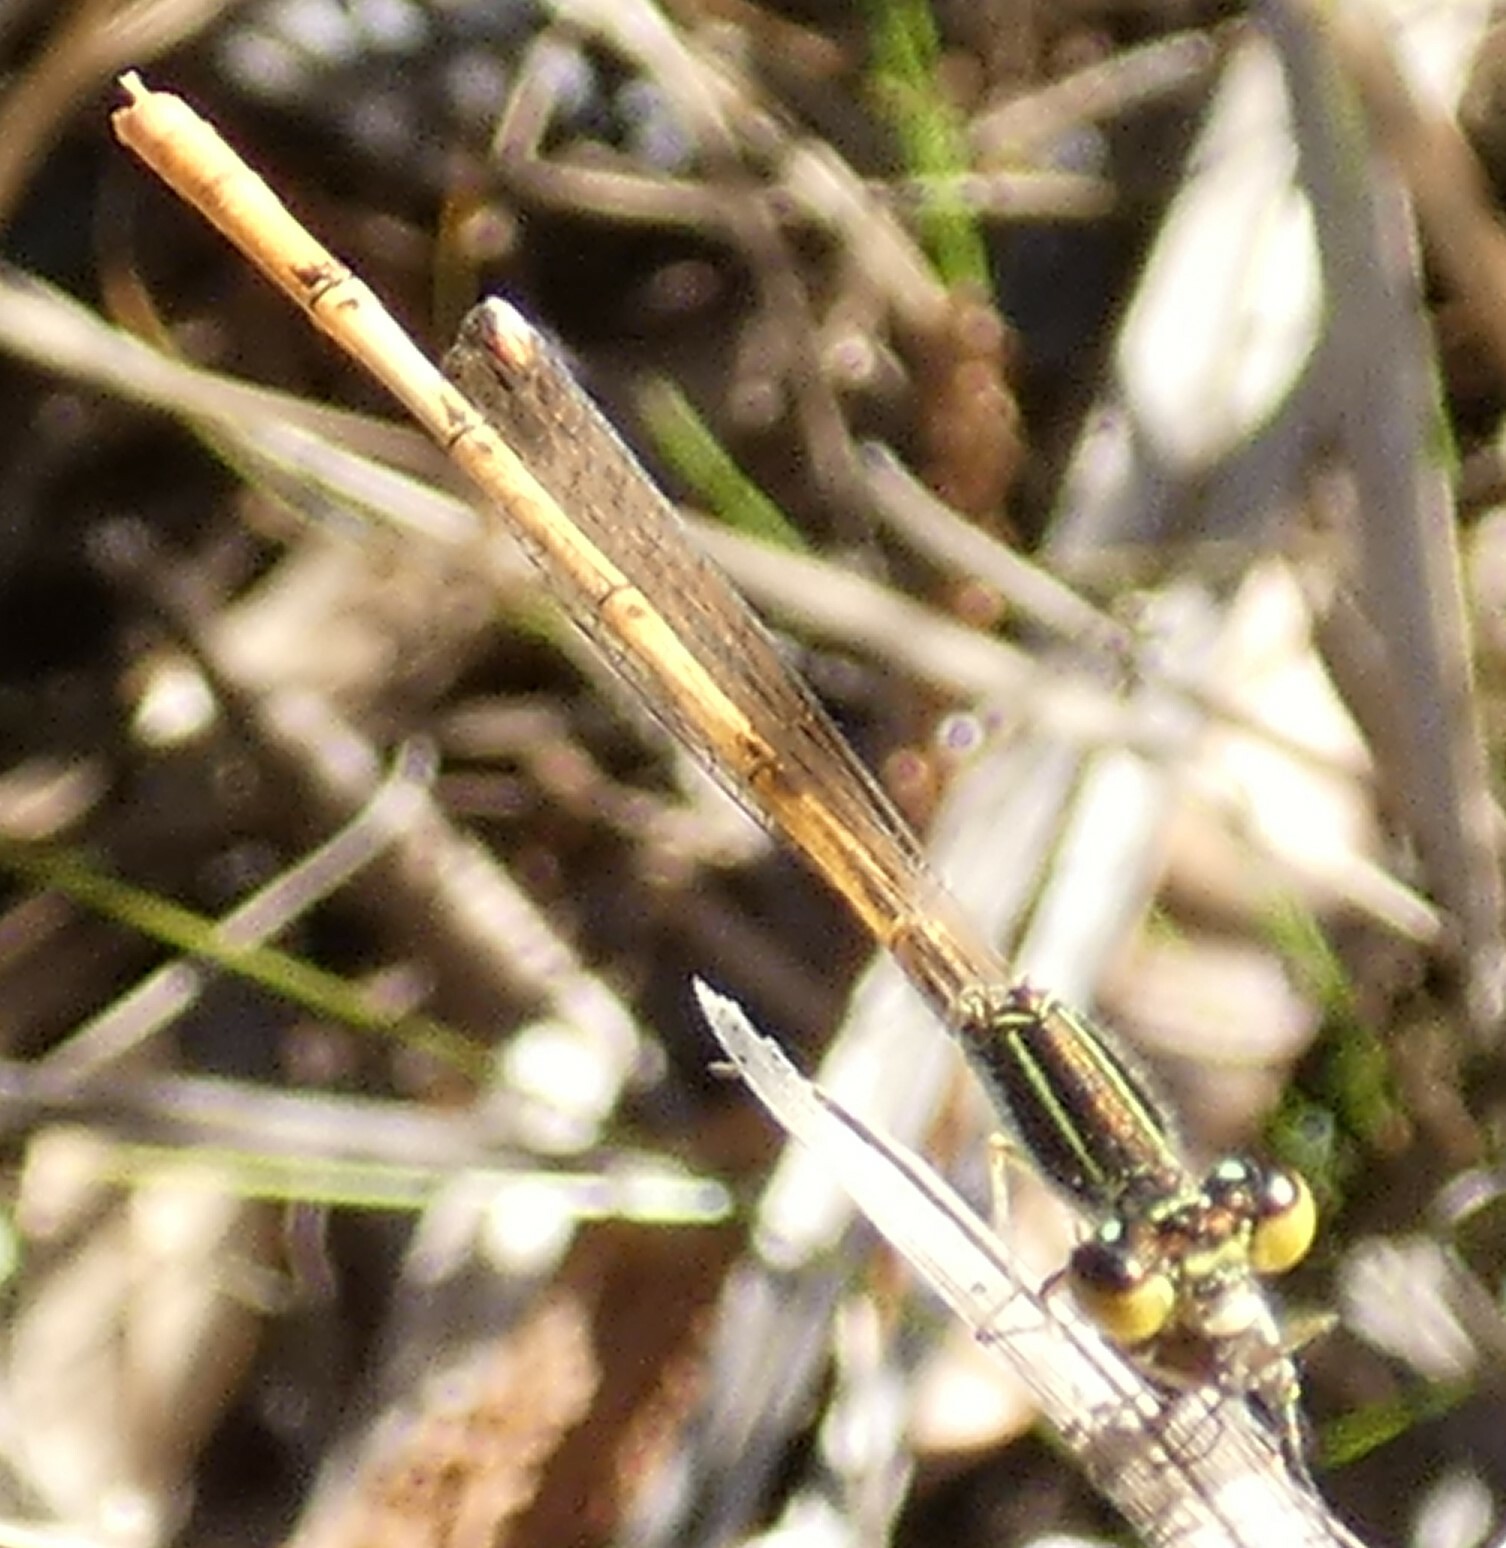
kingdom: Animalia
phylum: Arthropoda
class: Insecta
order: Odonata
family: Coenagrionidae
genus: Ischnura
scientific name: Ischnura hastata
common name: Citrine forktail
